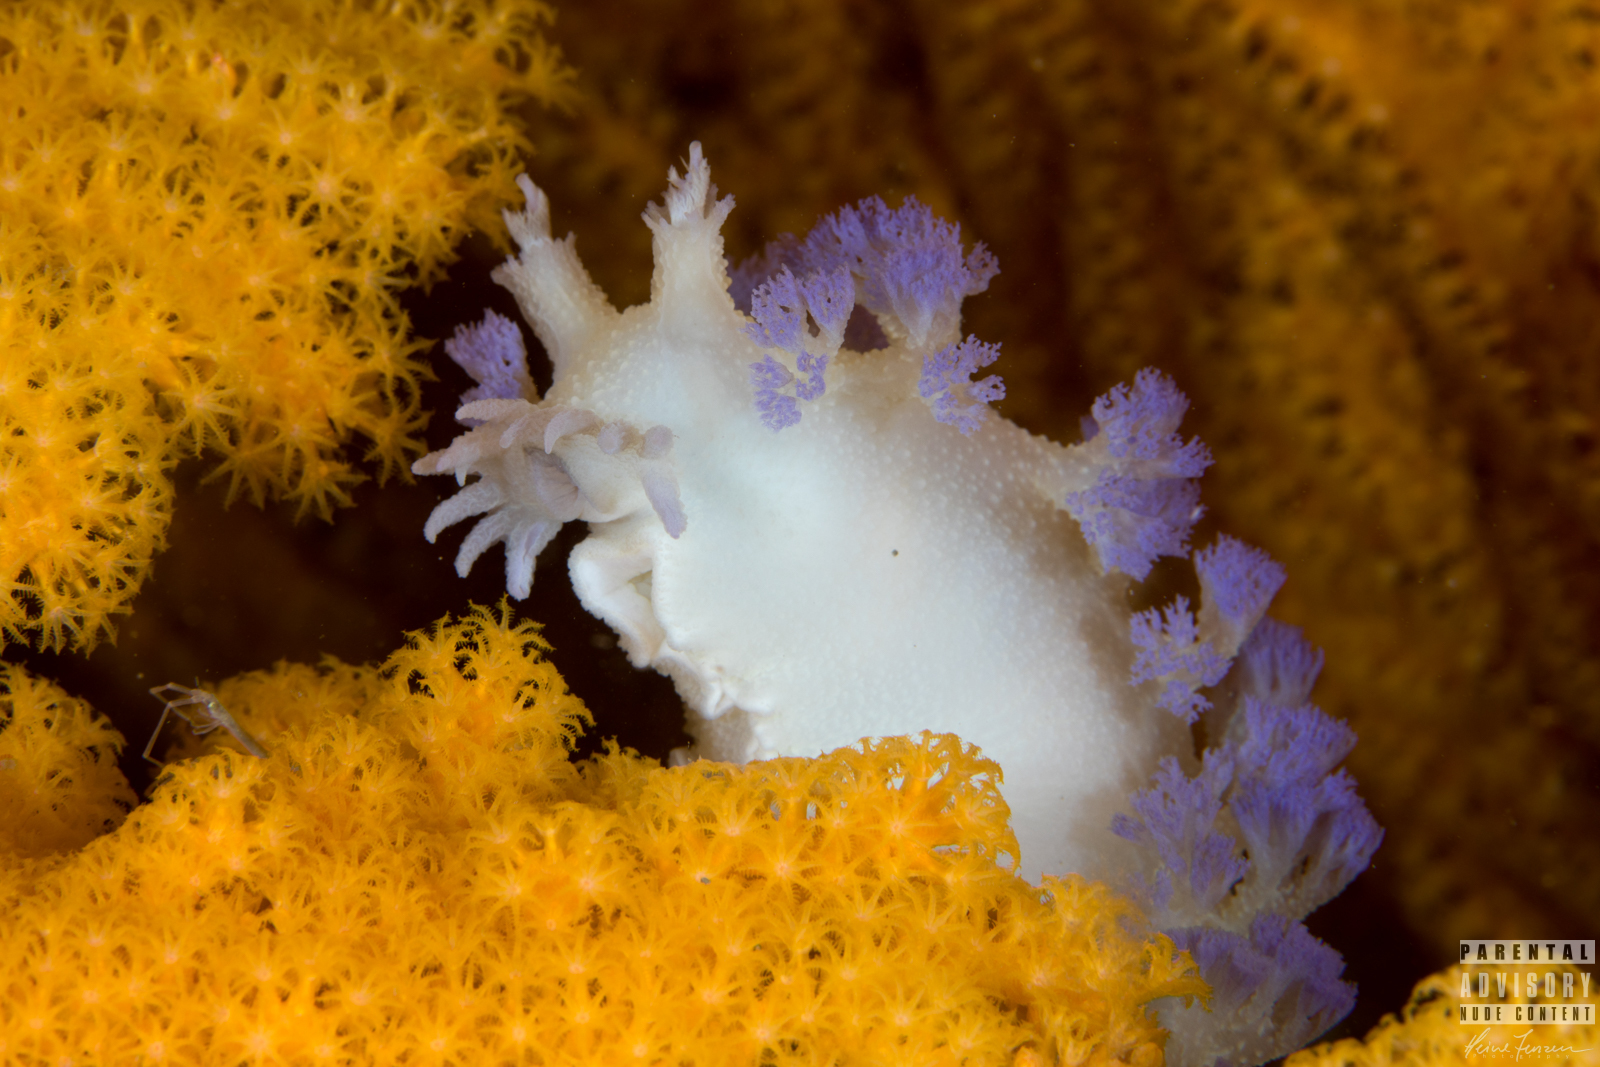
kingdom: Animalia
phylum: Mollusca
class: Gastropoda
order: Nudibranchia
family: Tritoniidae
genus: Tritonia
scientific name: Tritonia griegi
